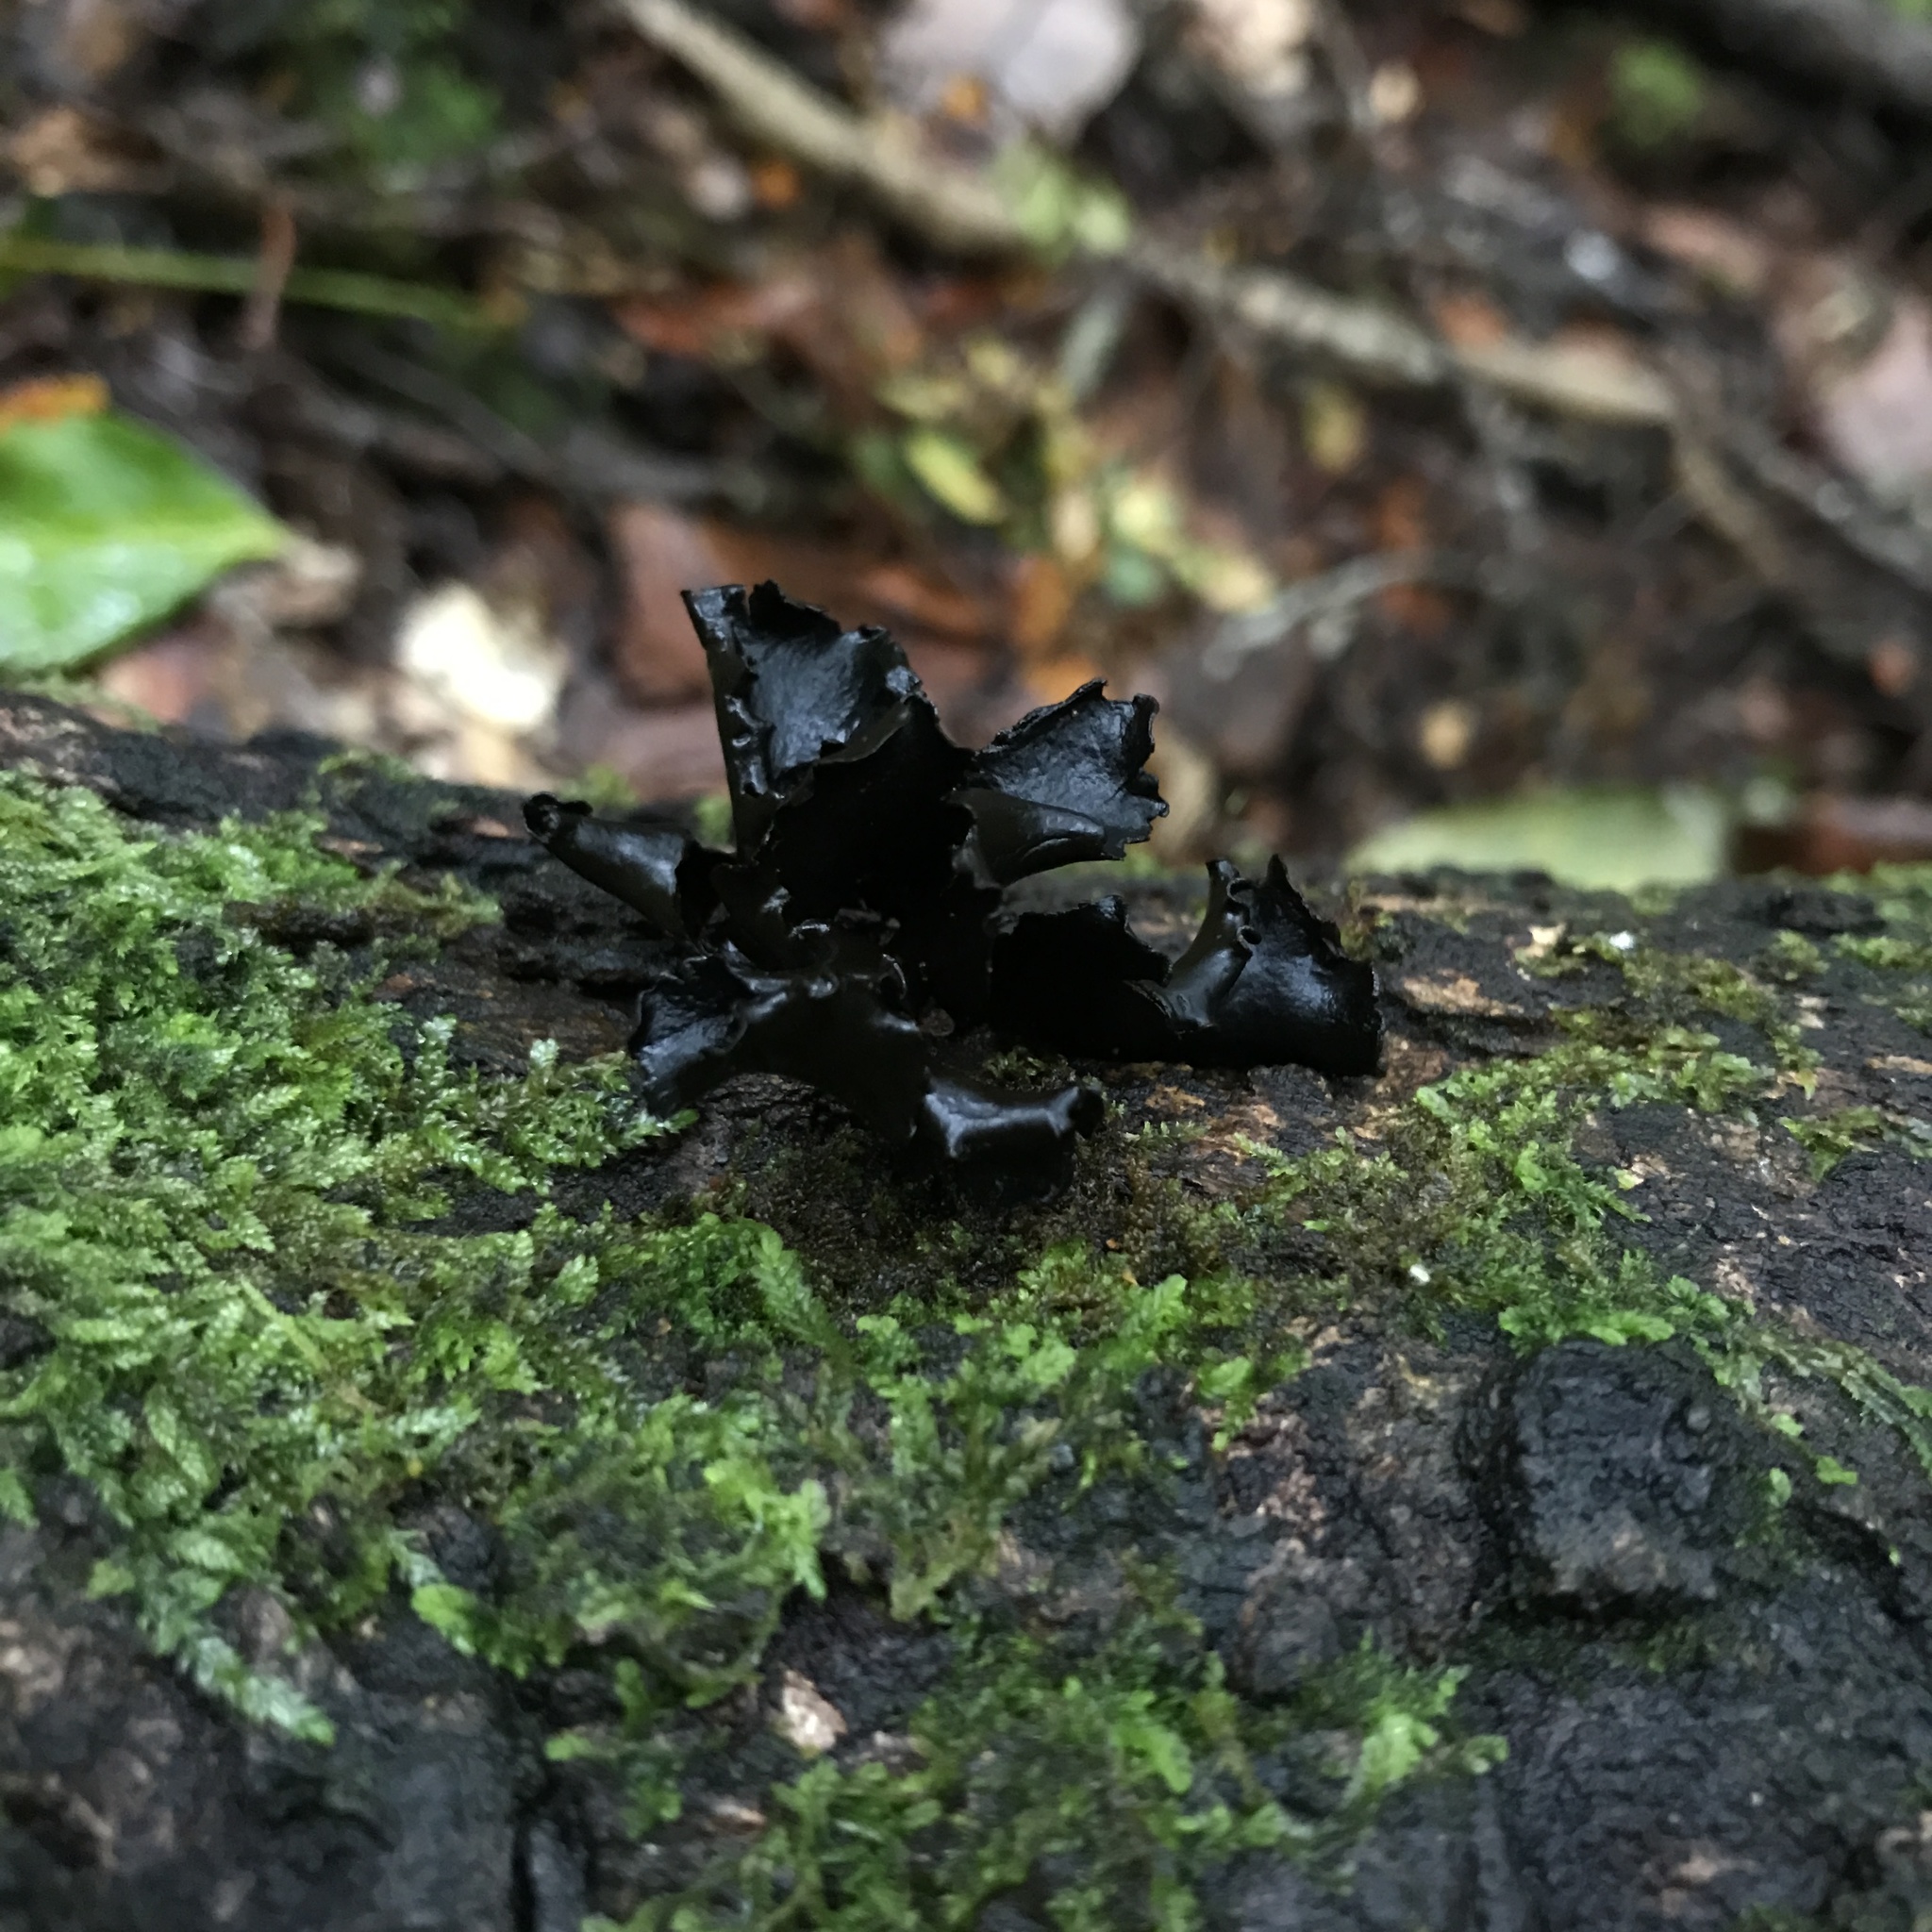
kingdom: Fungi
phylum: Ascomycota
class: Leotiomycetes
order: Helotiales
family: Cordieritidaceae
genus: Ameghiniella
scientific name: Ameghiniella australis
